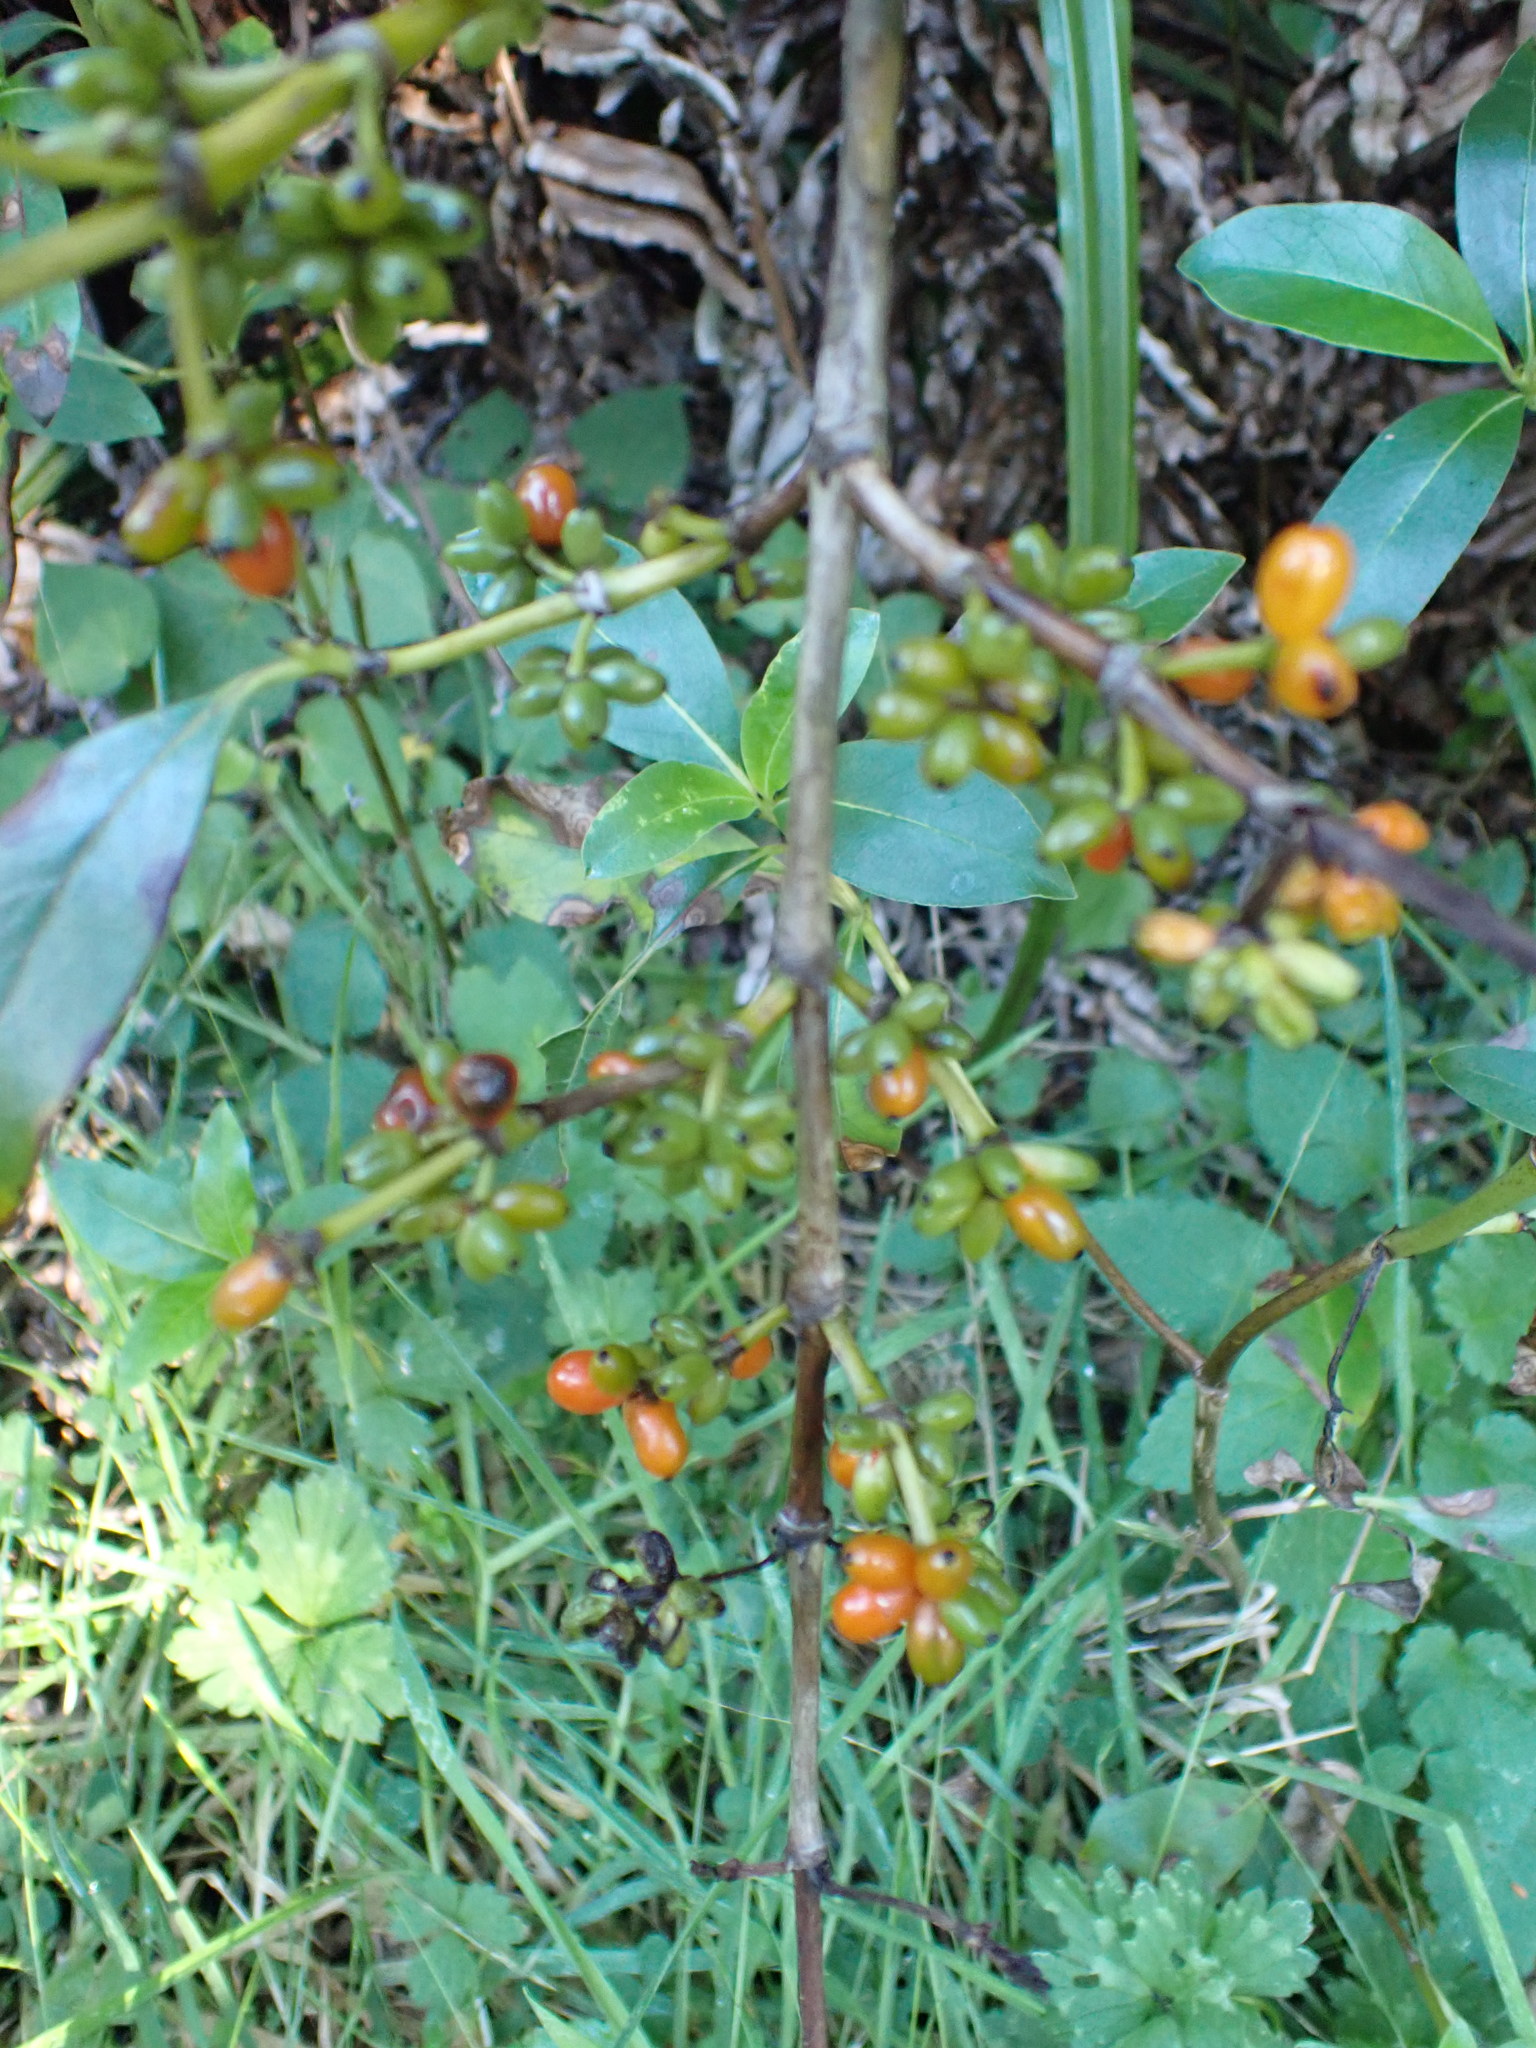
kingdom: Plantae
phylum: Tracheophyta
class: Magnoliopsida
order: Gentianales
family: Rubiaceae
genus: Coprosma
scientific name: Coprosma robusta
